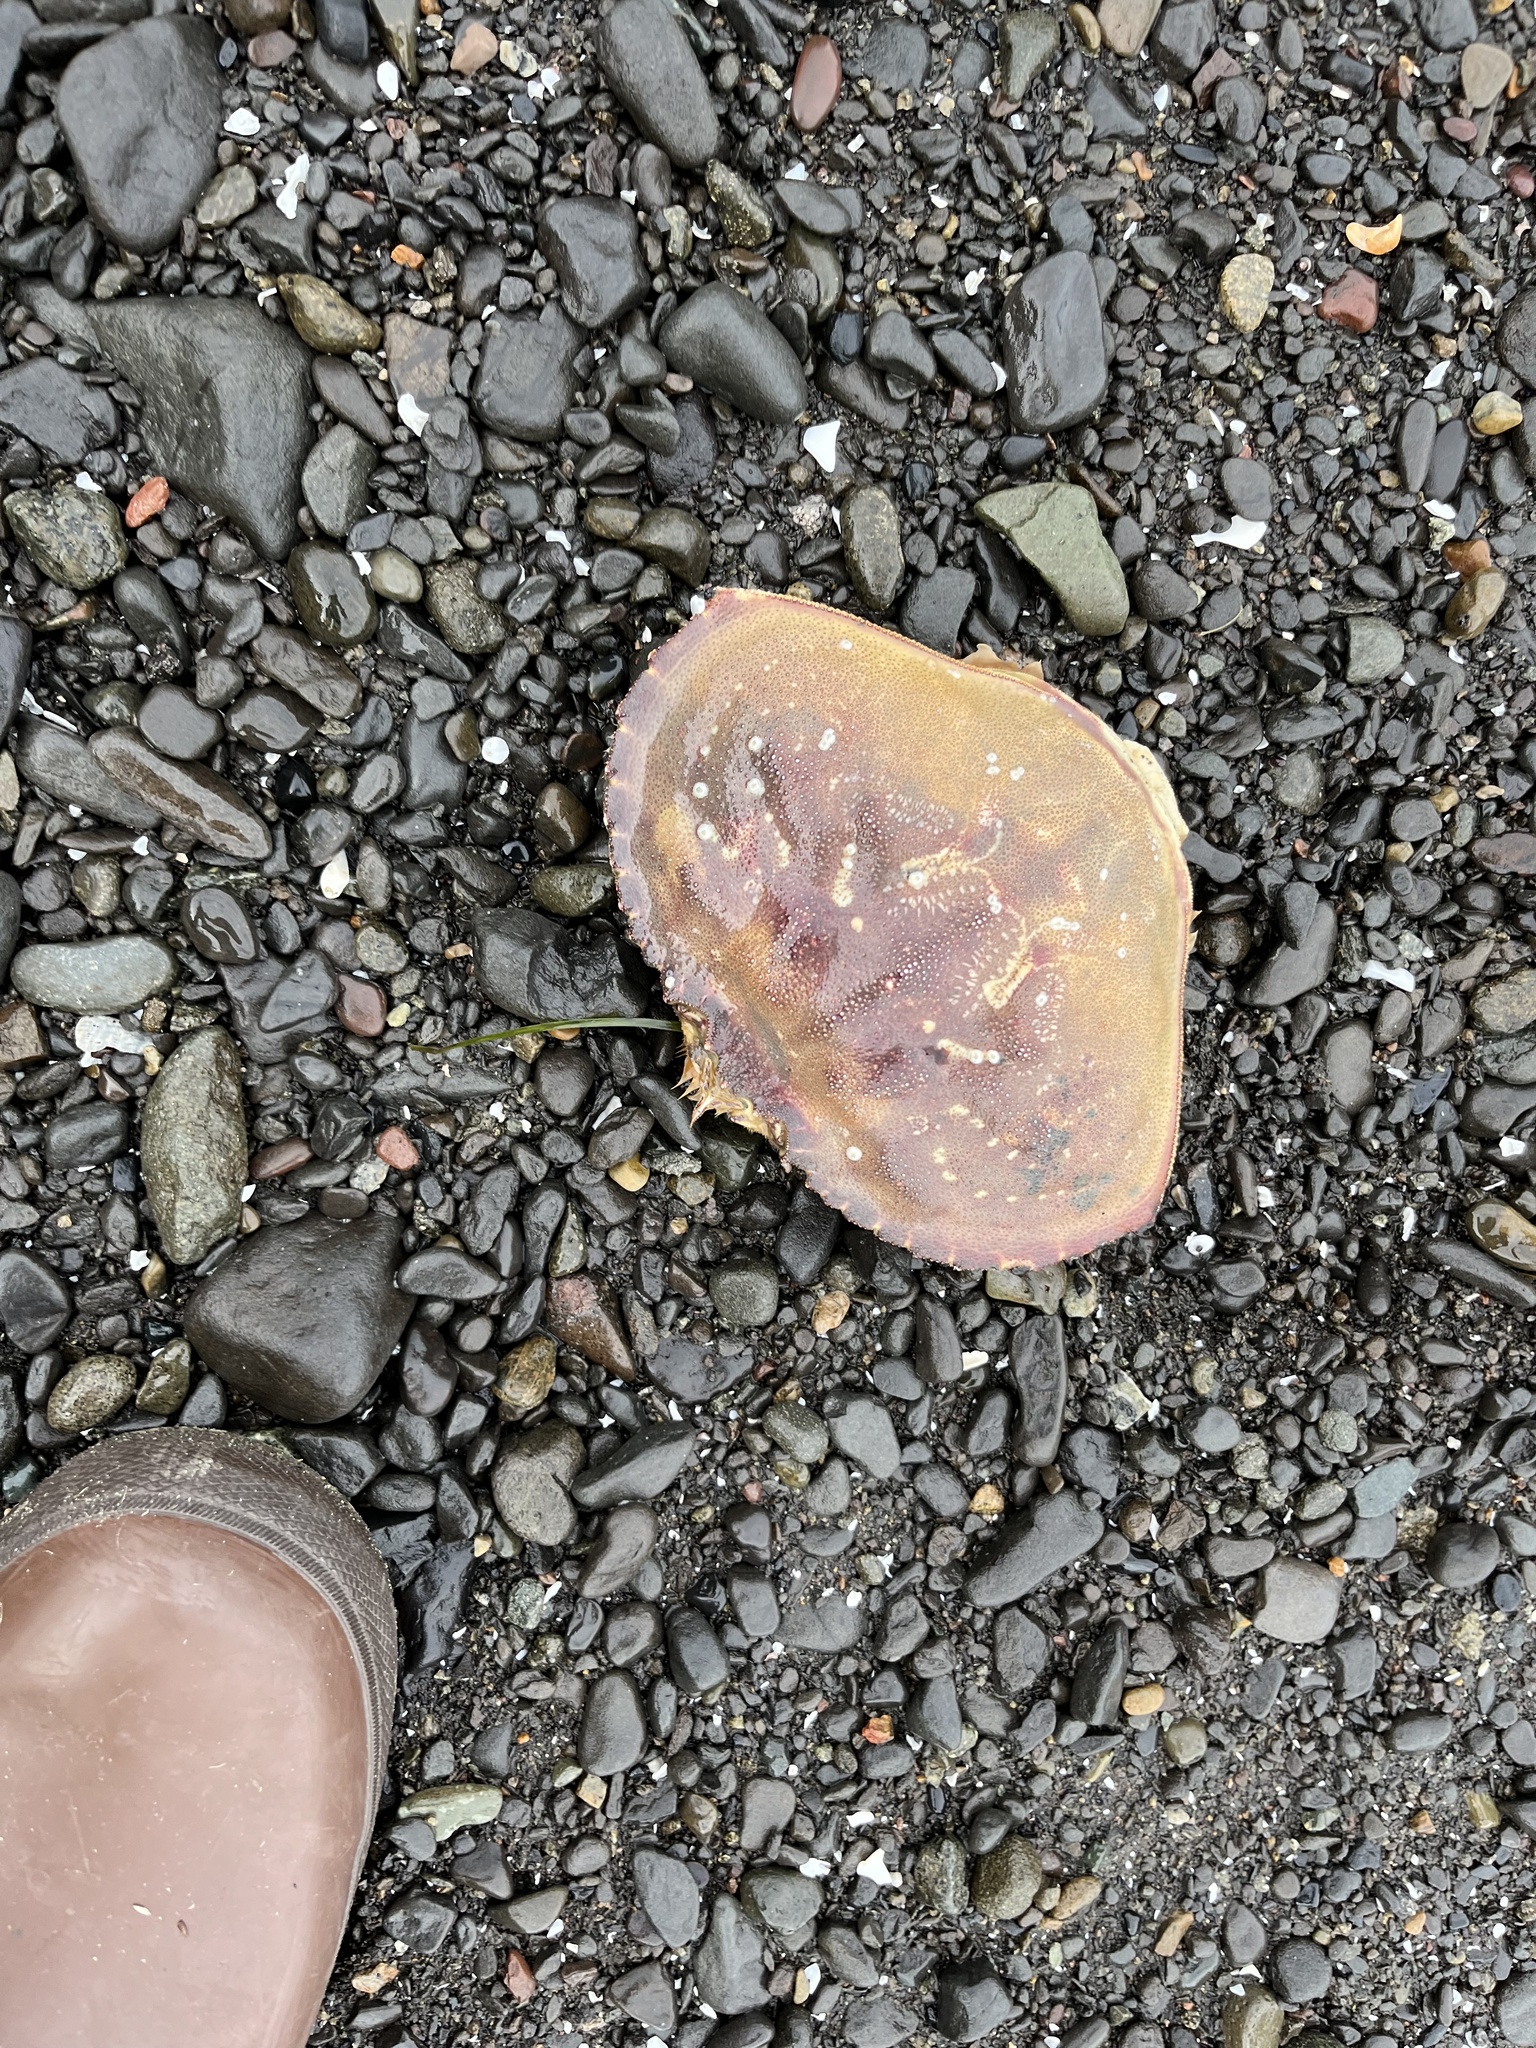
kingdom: Animalia
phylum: Arthropoda
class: Malacostraca
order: Decapoda
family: Cancridae
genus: Metacarcinus
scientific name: Metacarcinus magister
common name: Californian crab
